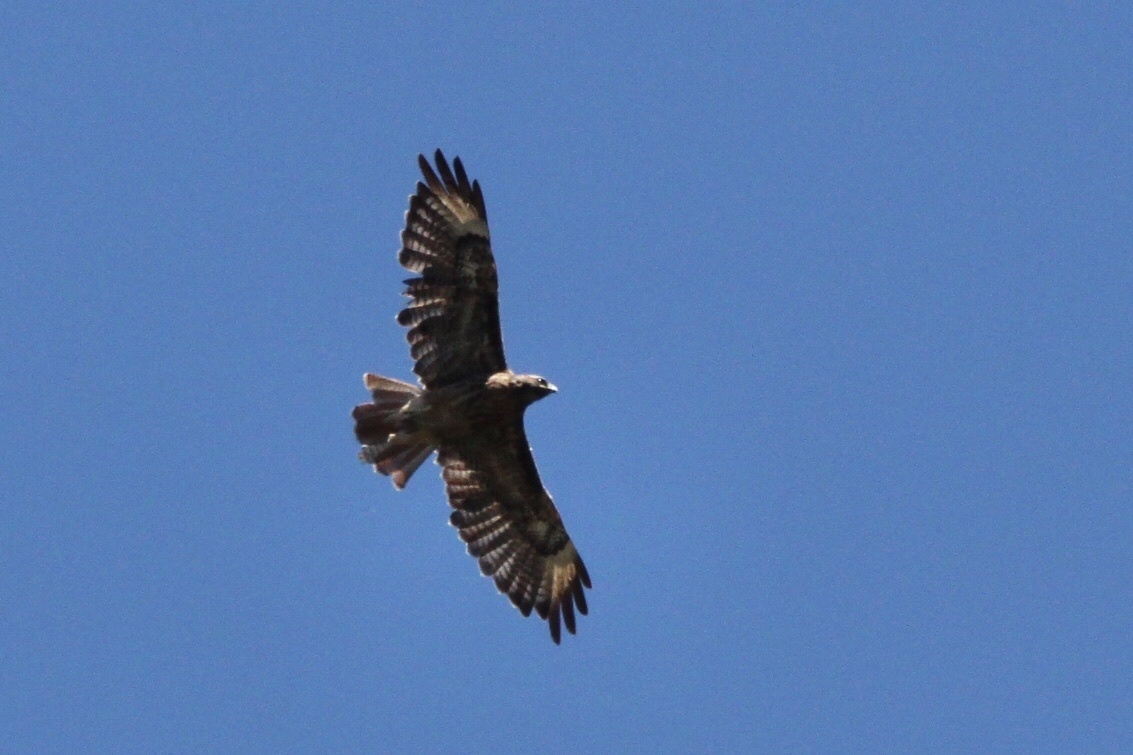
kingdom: Animalia
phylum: Chordata
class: Aves
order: Accipitriformes
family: Accipitridae
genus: Buteo
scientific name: Buteo jamaicensis
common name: Red-tailed hawk
